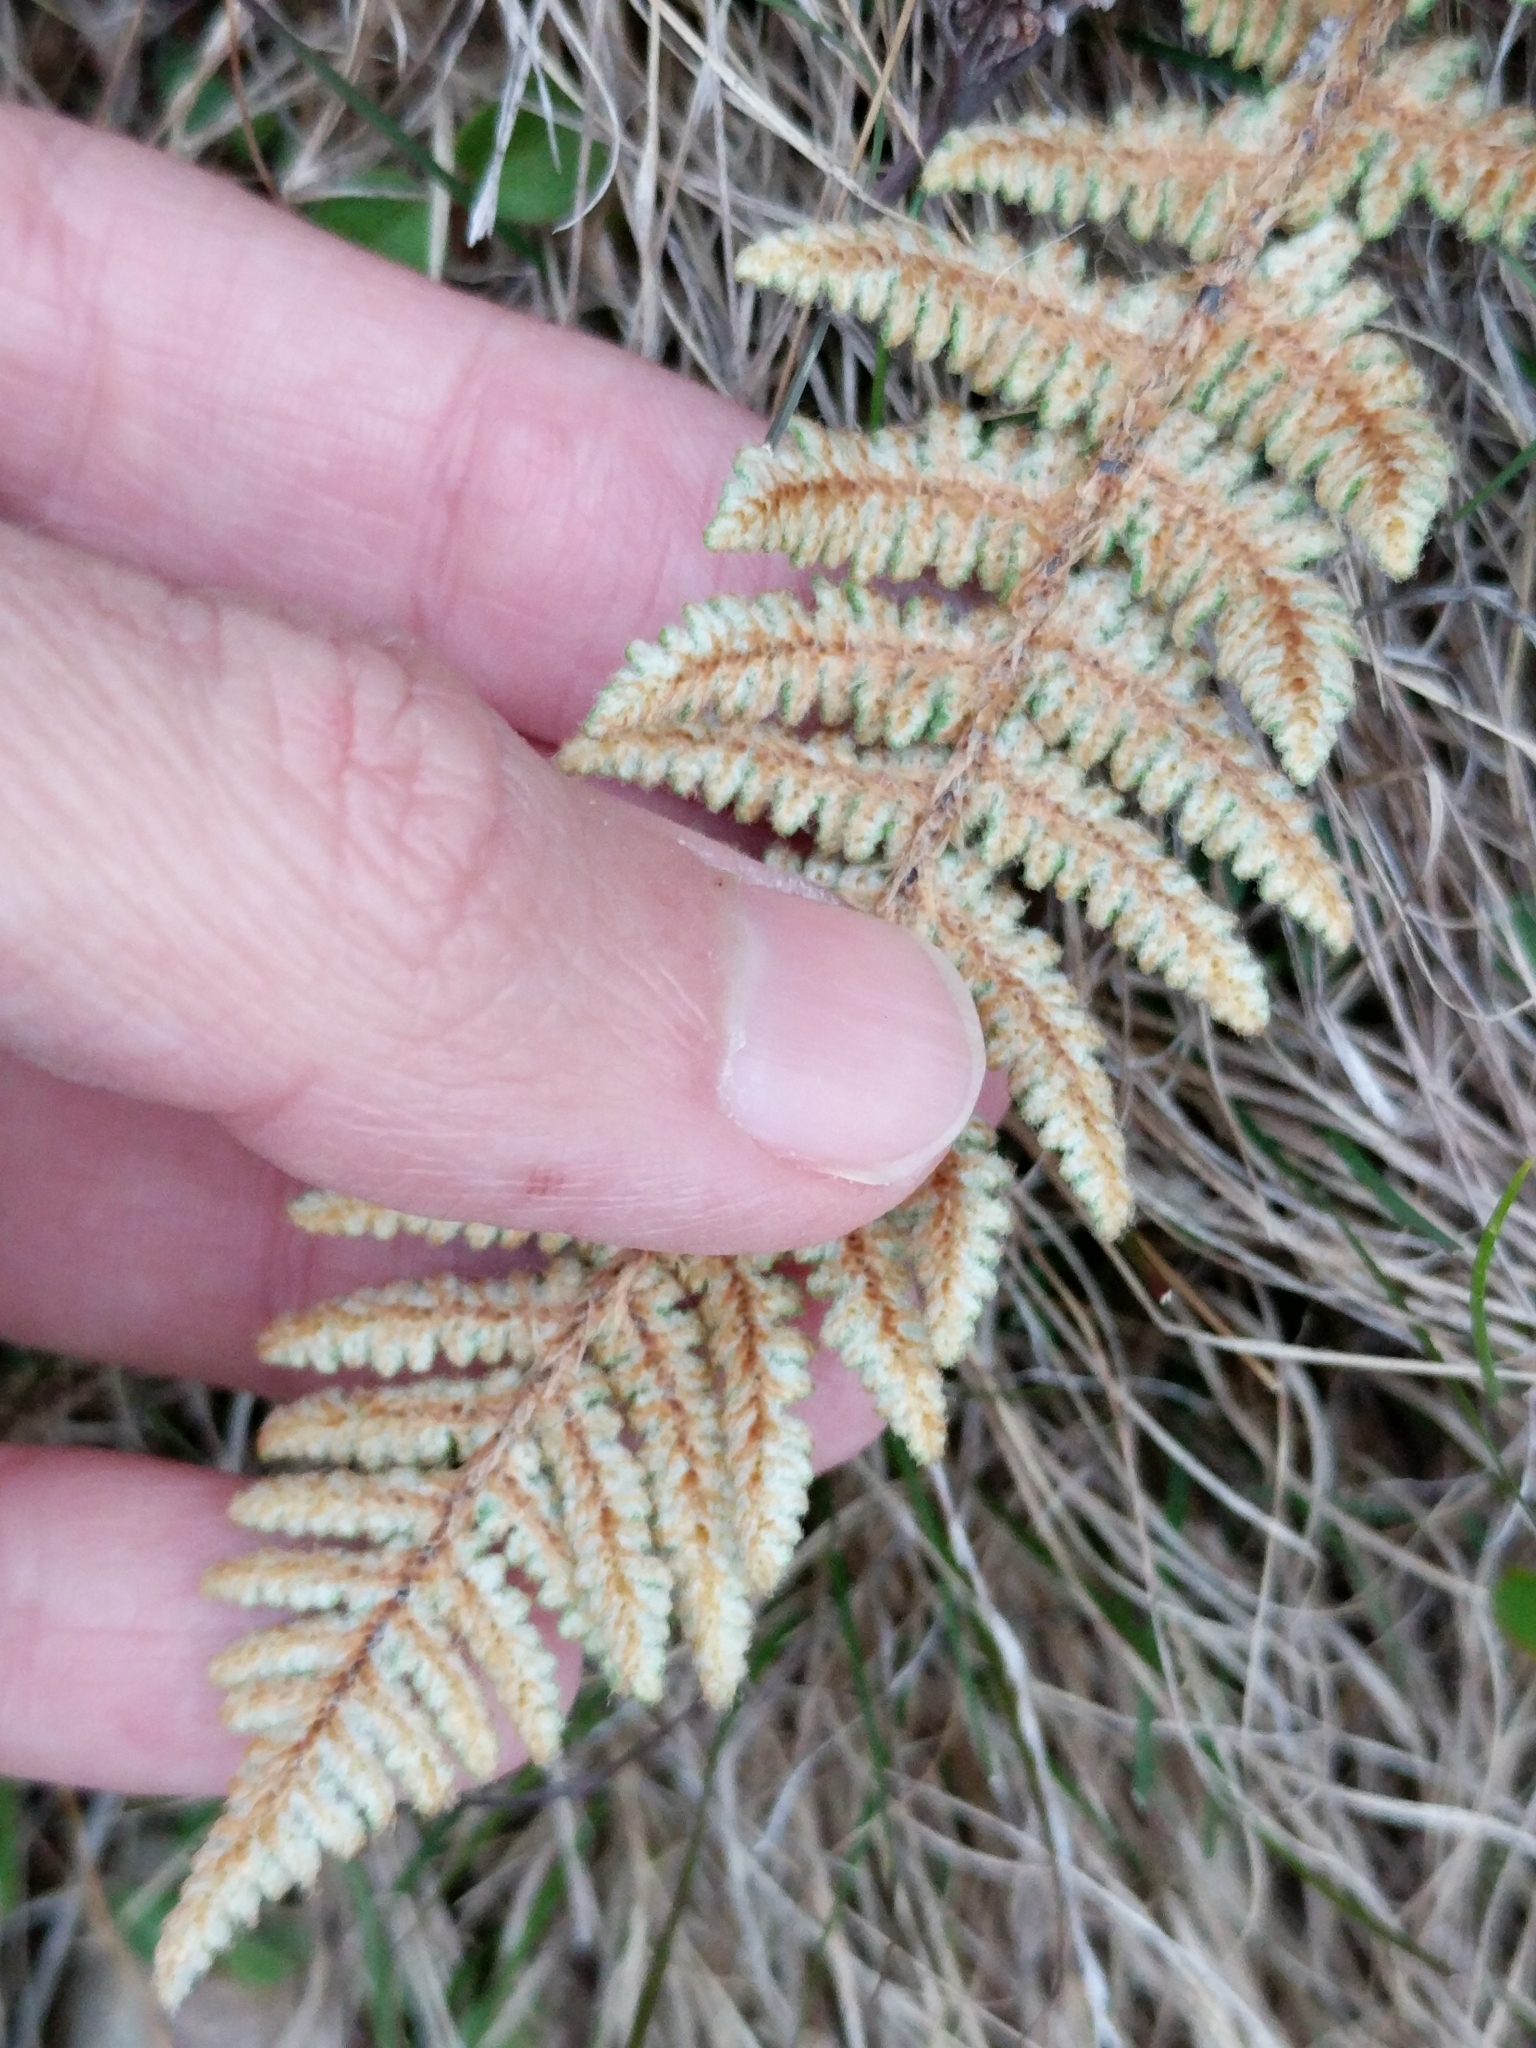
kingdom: Plantae
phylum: Tracheophyta
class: Polypodiopsida
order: Polypodiales
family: Pteridaceae
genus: Myriopteris
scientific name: Myriopteris lindheimeri
